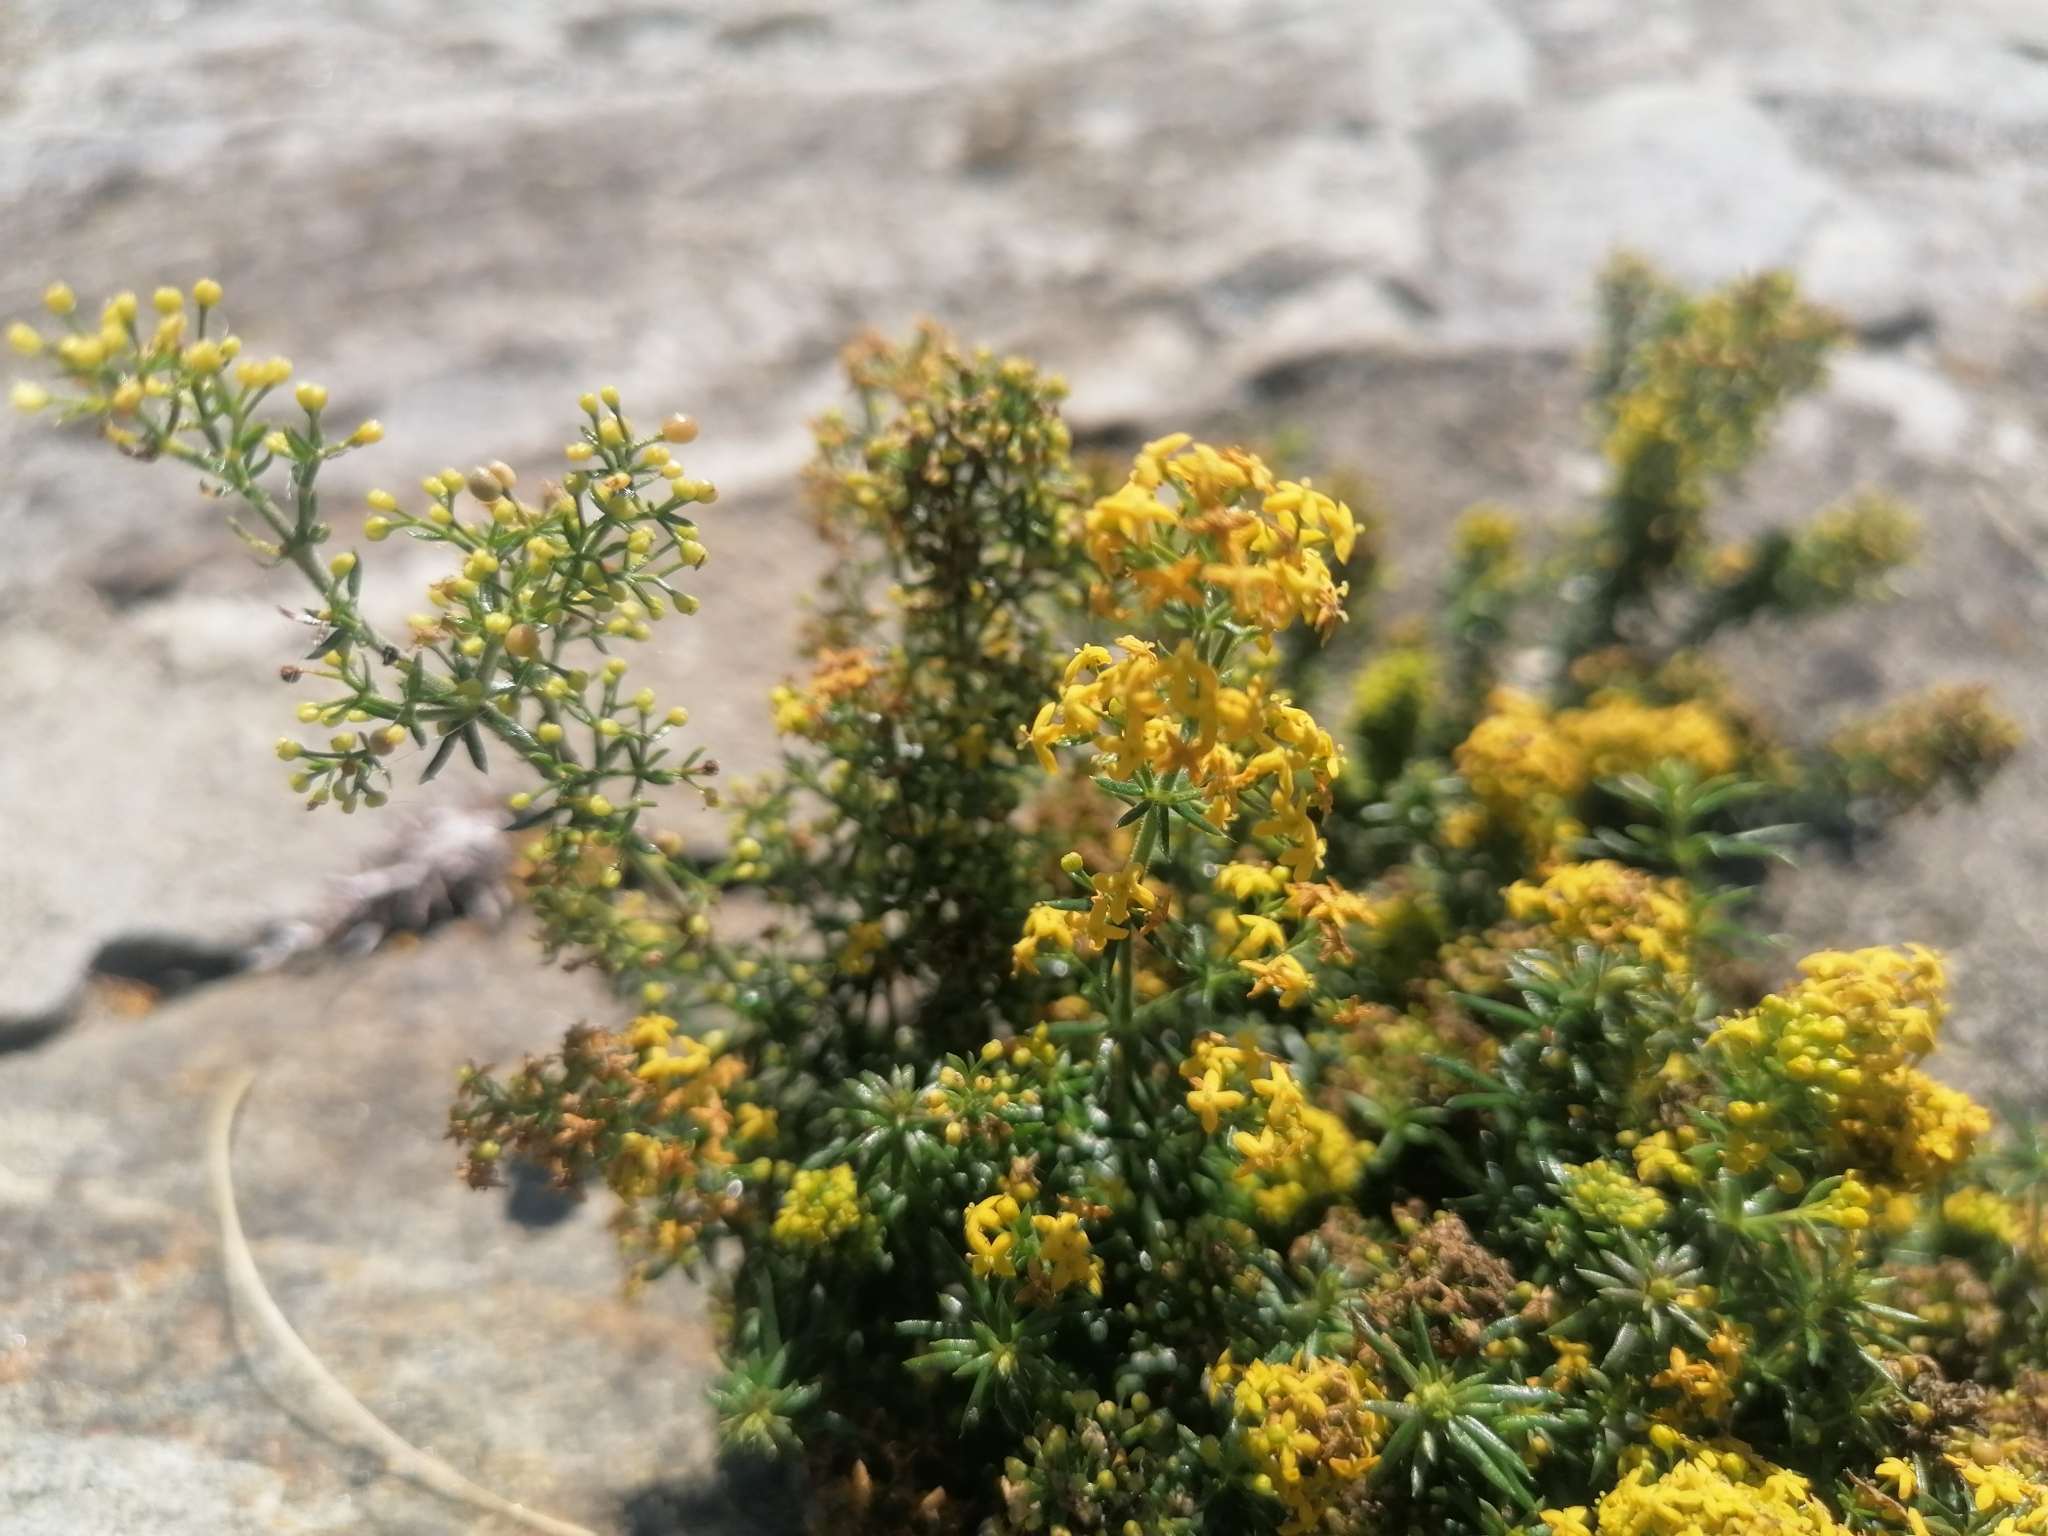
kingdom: Plantae
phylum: Tracheophyta
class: Magnoliopsida
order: Gentianales
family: Rubiaceae
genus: Galium
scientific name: Galium verum
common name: Lady's bedstraw
